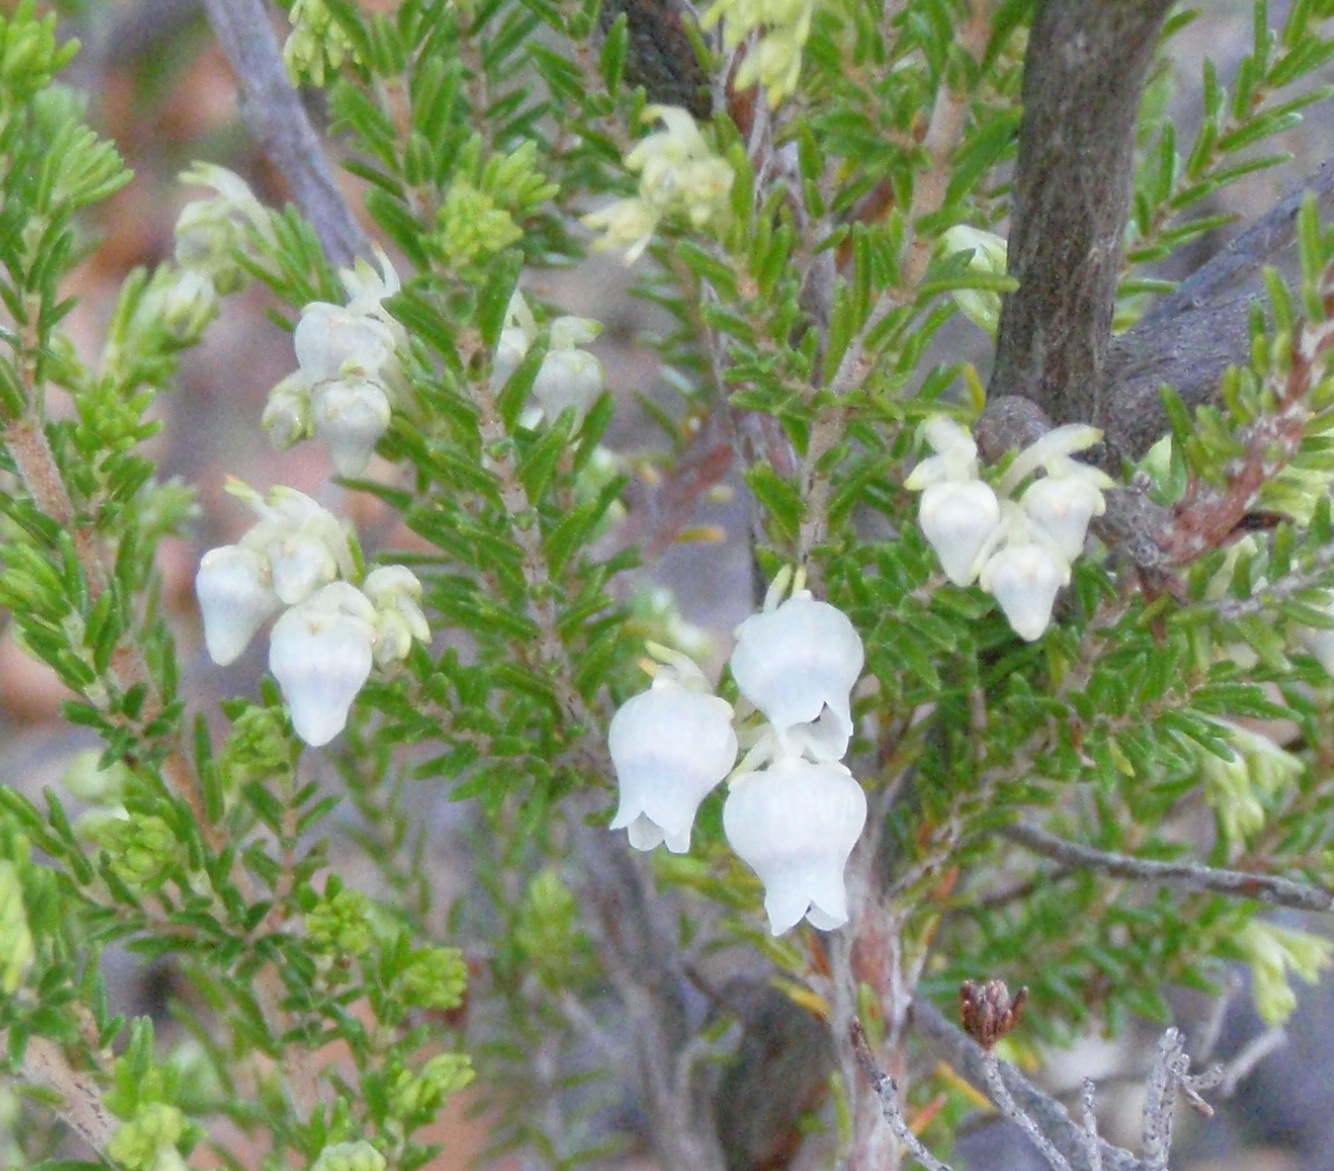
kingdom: Plantae
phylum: Tracheophyta
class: Magnoliopsida
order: Ericales
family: Ericaceae
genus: Erica
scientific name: Erica glomiflora
